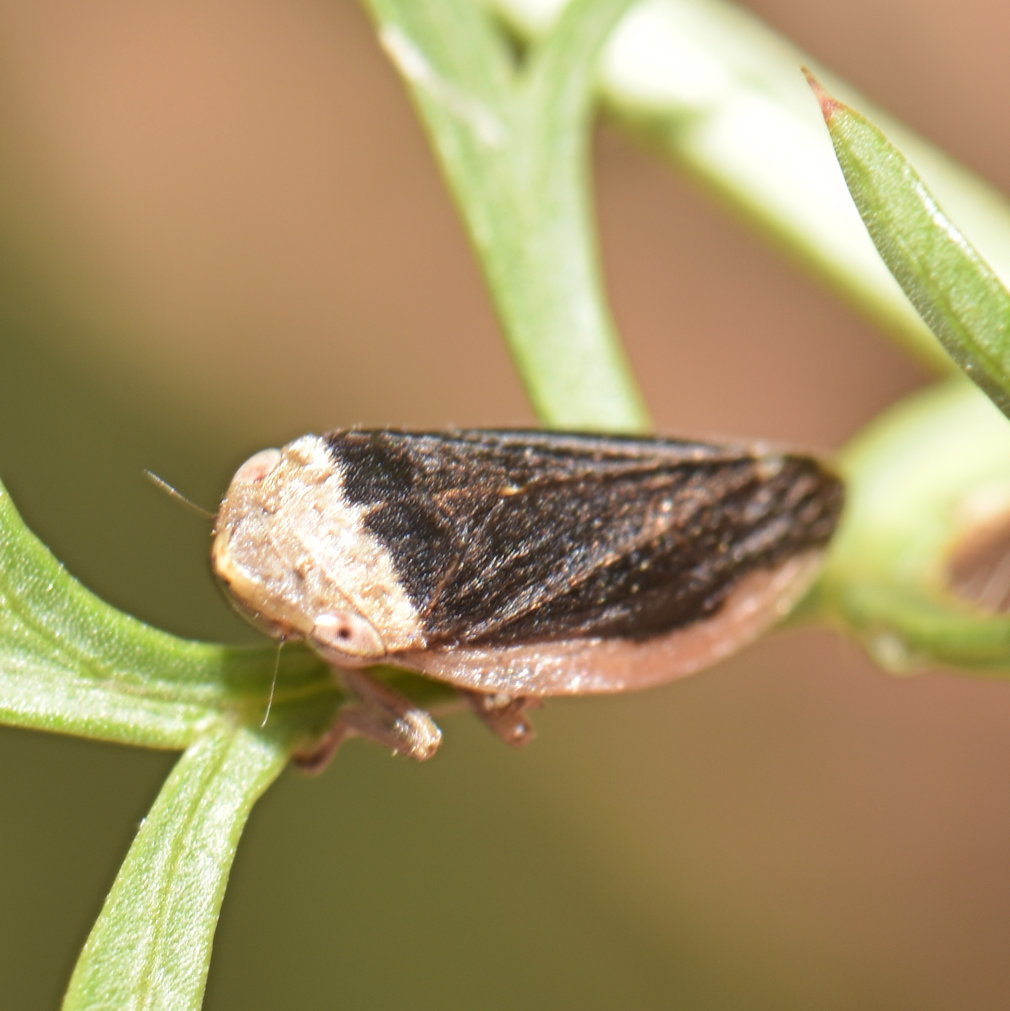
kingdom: Animalia
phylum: Arthropoda
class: Insecta
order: Hemiptera
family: Aphrophoridae
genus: Philaenus
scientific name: Philaenus spumarius
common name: Meadow spittlebug
